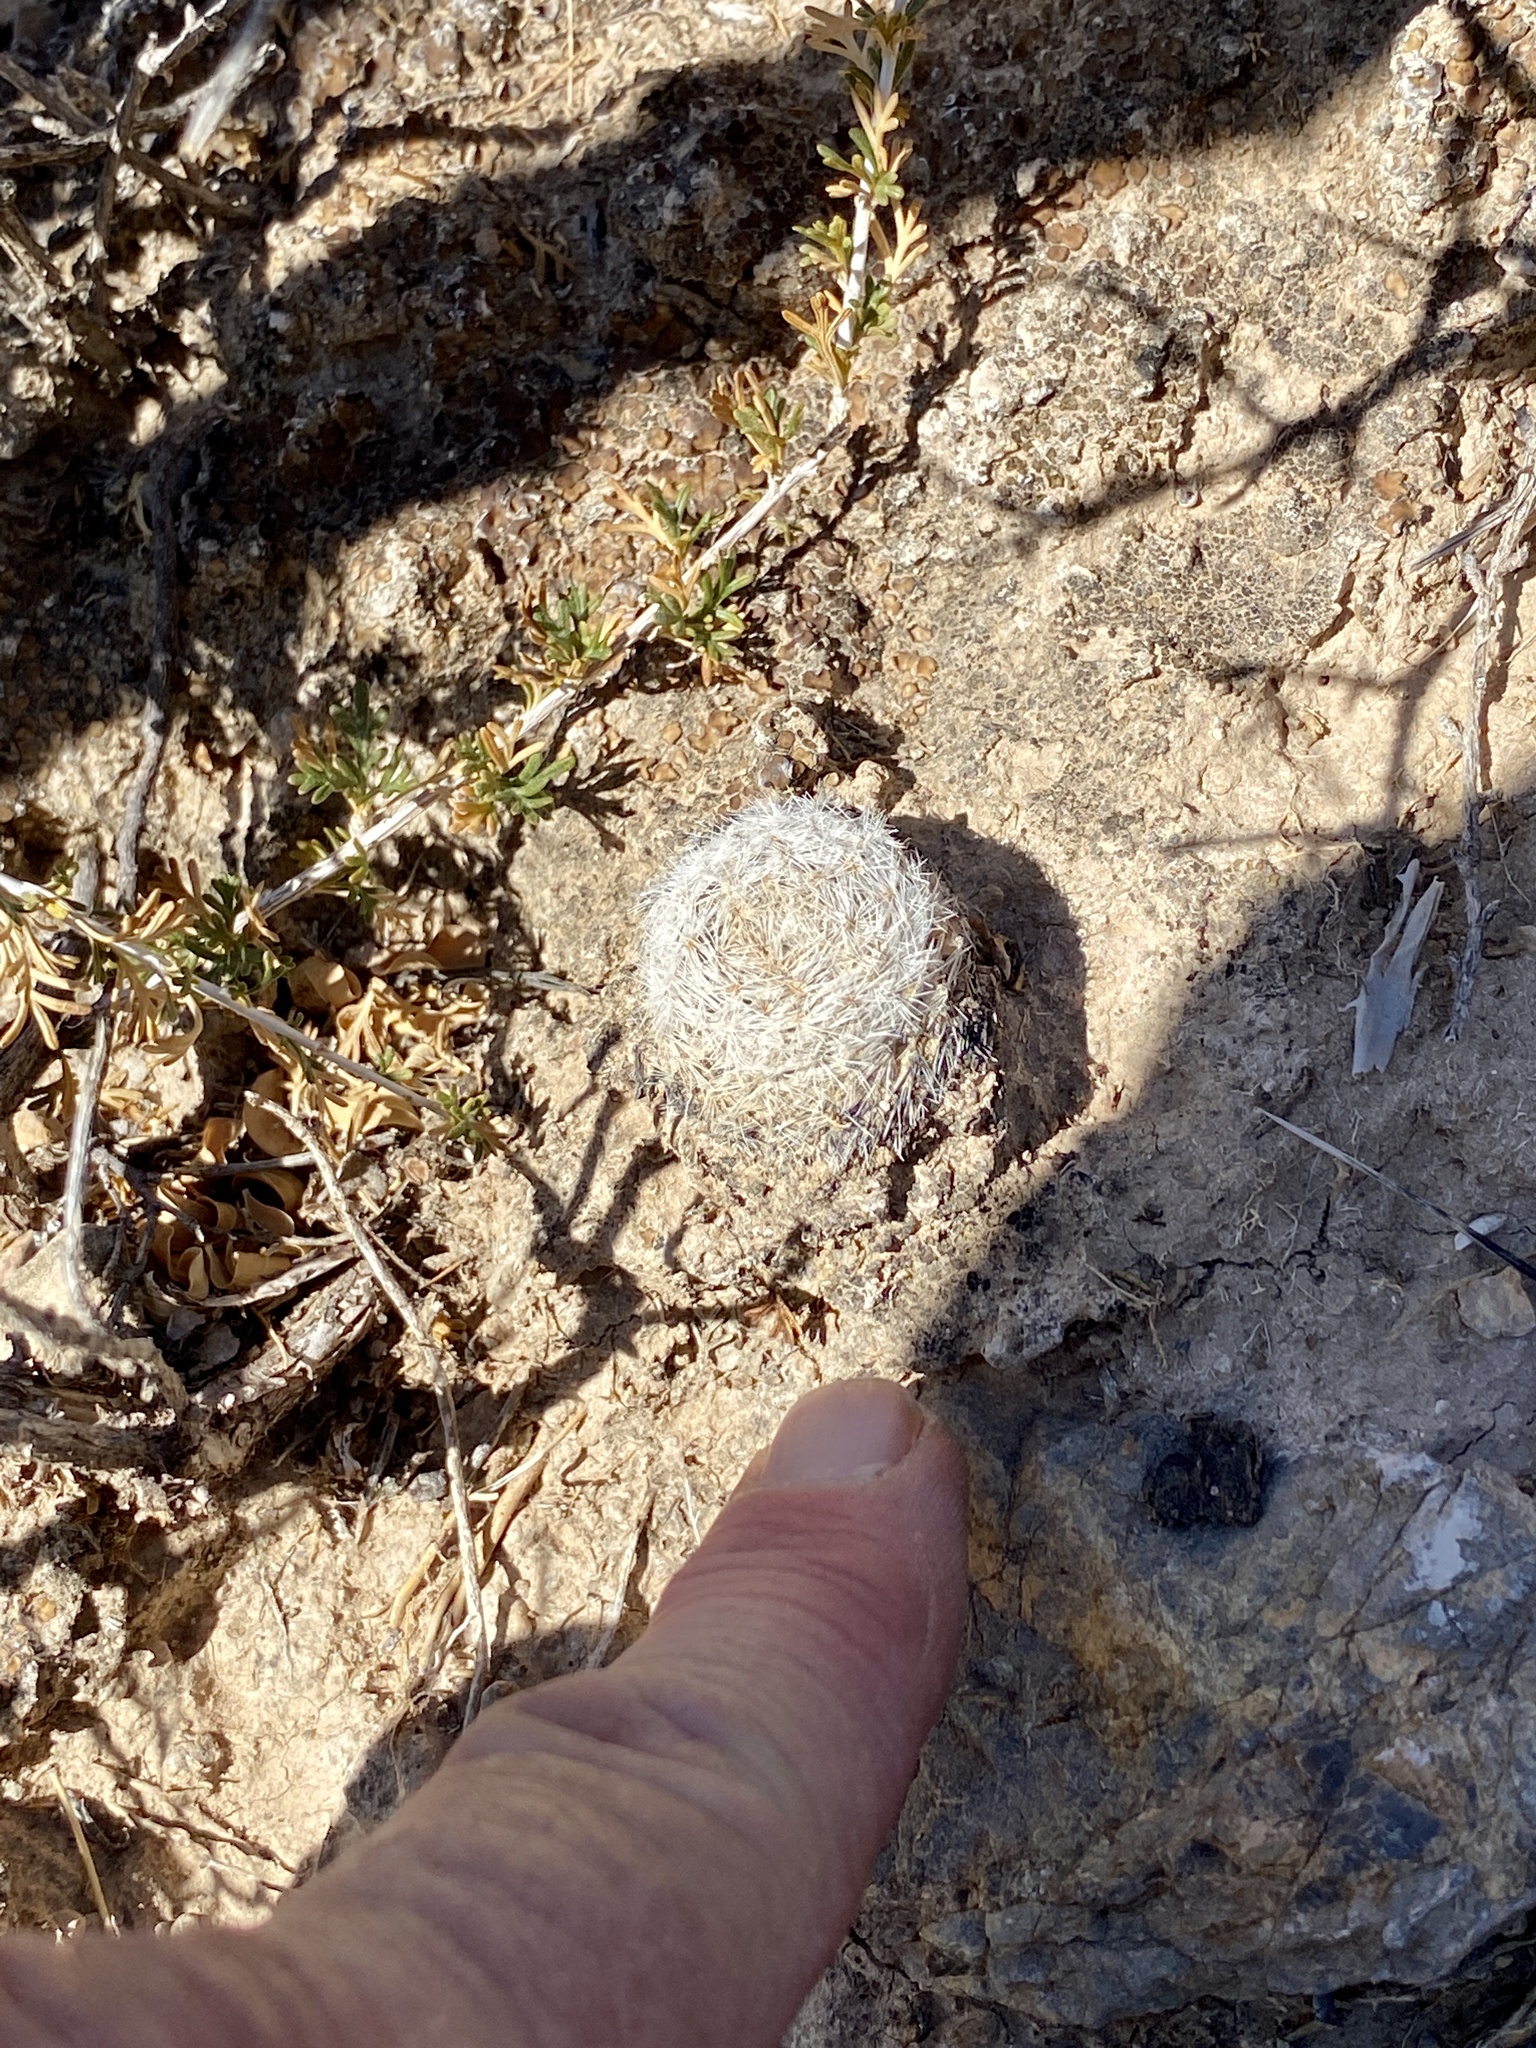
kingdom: Plantae
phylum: Tracheophyta
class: Magnoliopsida
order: Caryophyllales
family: Cactaceae
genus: Mammillaria
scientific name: Mammillaria lasiacantha
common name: Lace-spine nipple cactus
